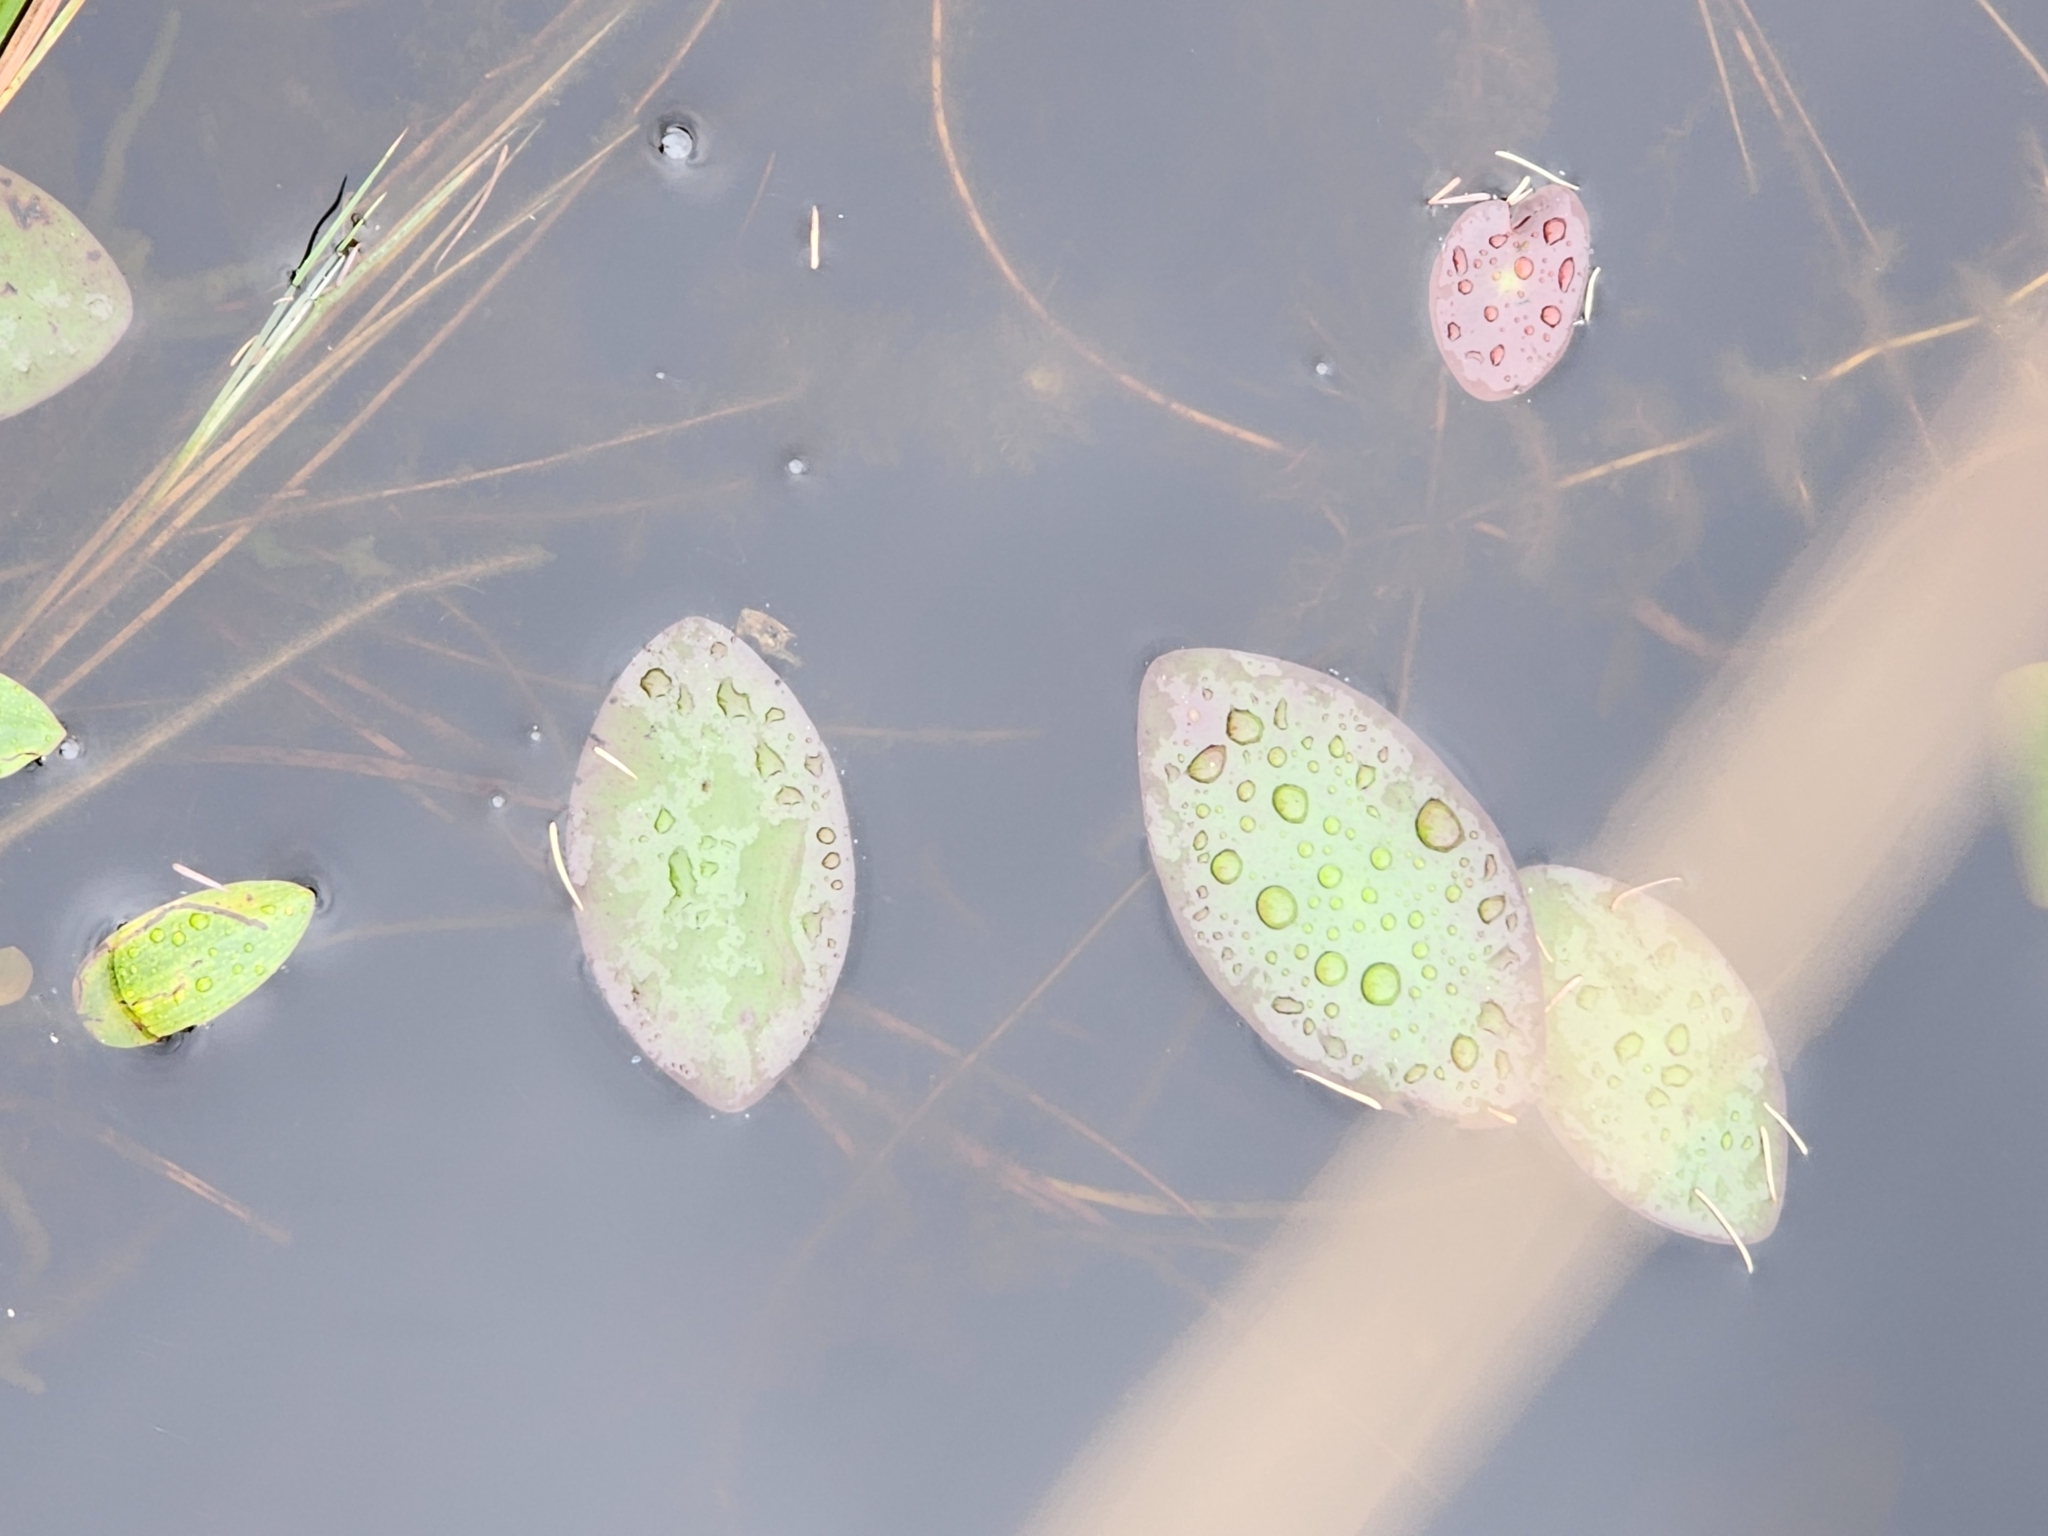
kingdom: Plantae
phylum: Tracheophyta
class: Magnoliopsida
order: Nymphaeales
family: Cabombaceae
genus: Brasenia
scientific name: Brasenia schreberi
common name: Water-shield
